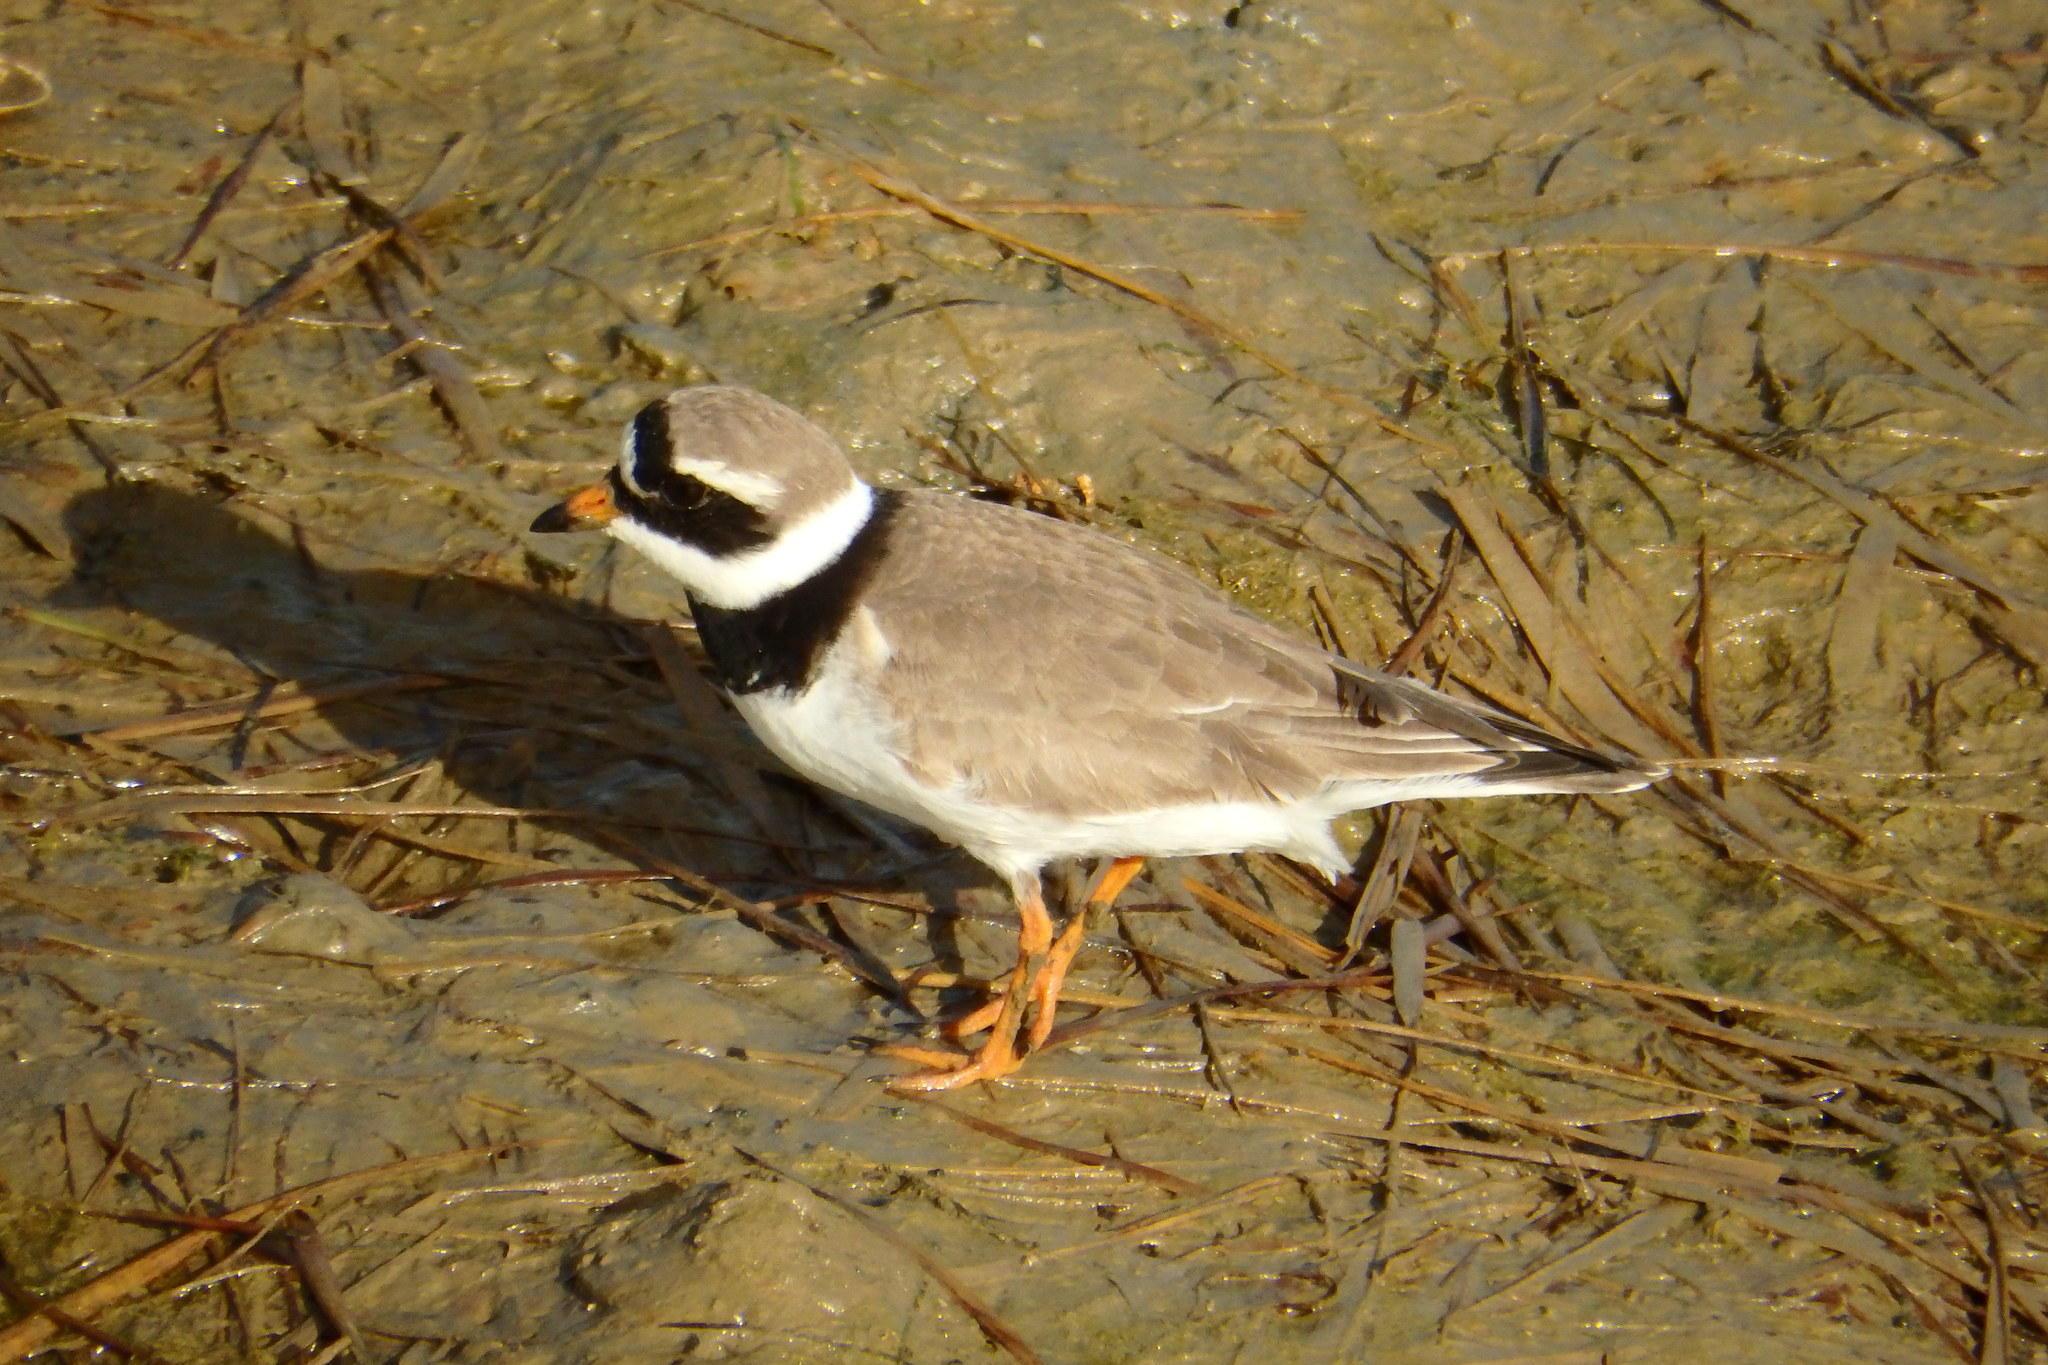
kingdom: Animalia
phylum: Chordata
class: Aves
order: Charadriiformes
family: Charadriidae
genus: Charadrius
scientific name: Charadrius hiaticula
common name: Common ringed plover
